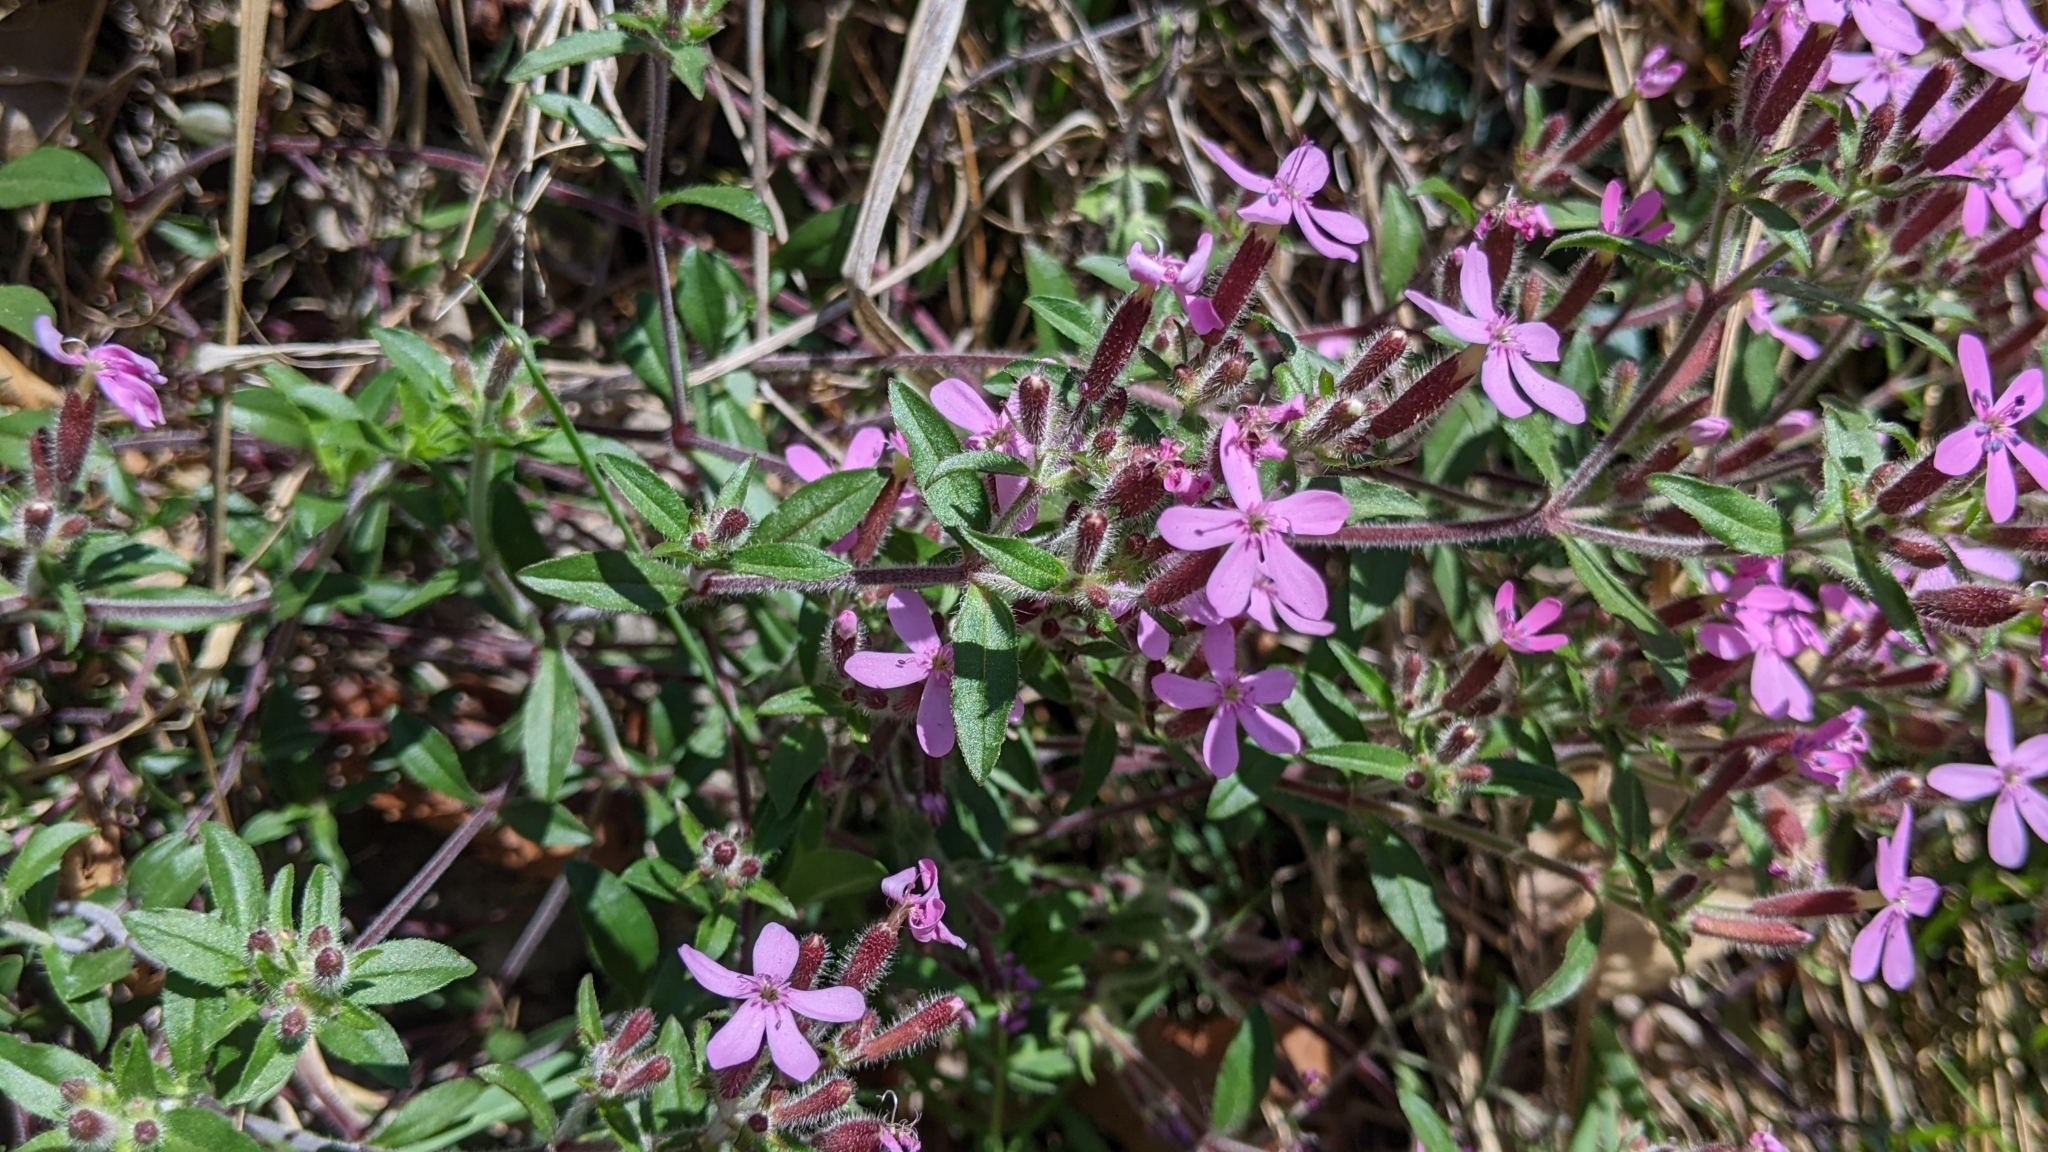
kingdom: Plantae
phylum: Tracheophyta
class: Magnoliopsida
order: Caryophyllales
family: Caryophyllaceae
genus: Saponaria
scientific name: Saponaria ocymoides
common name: Rock soapwort
